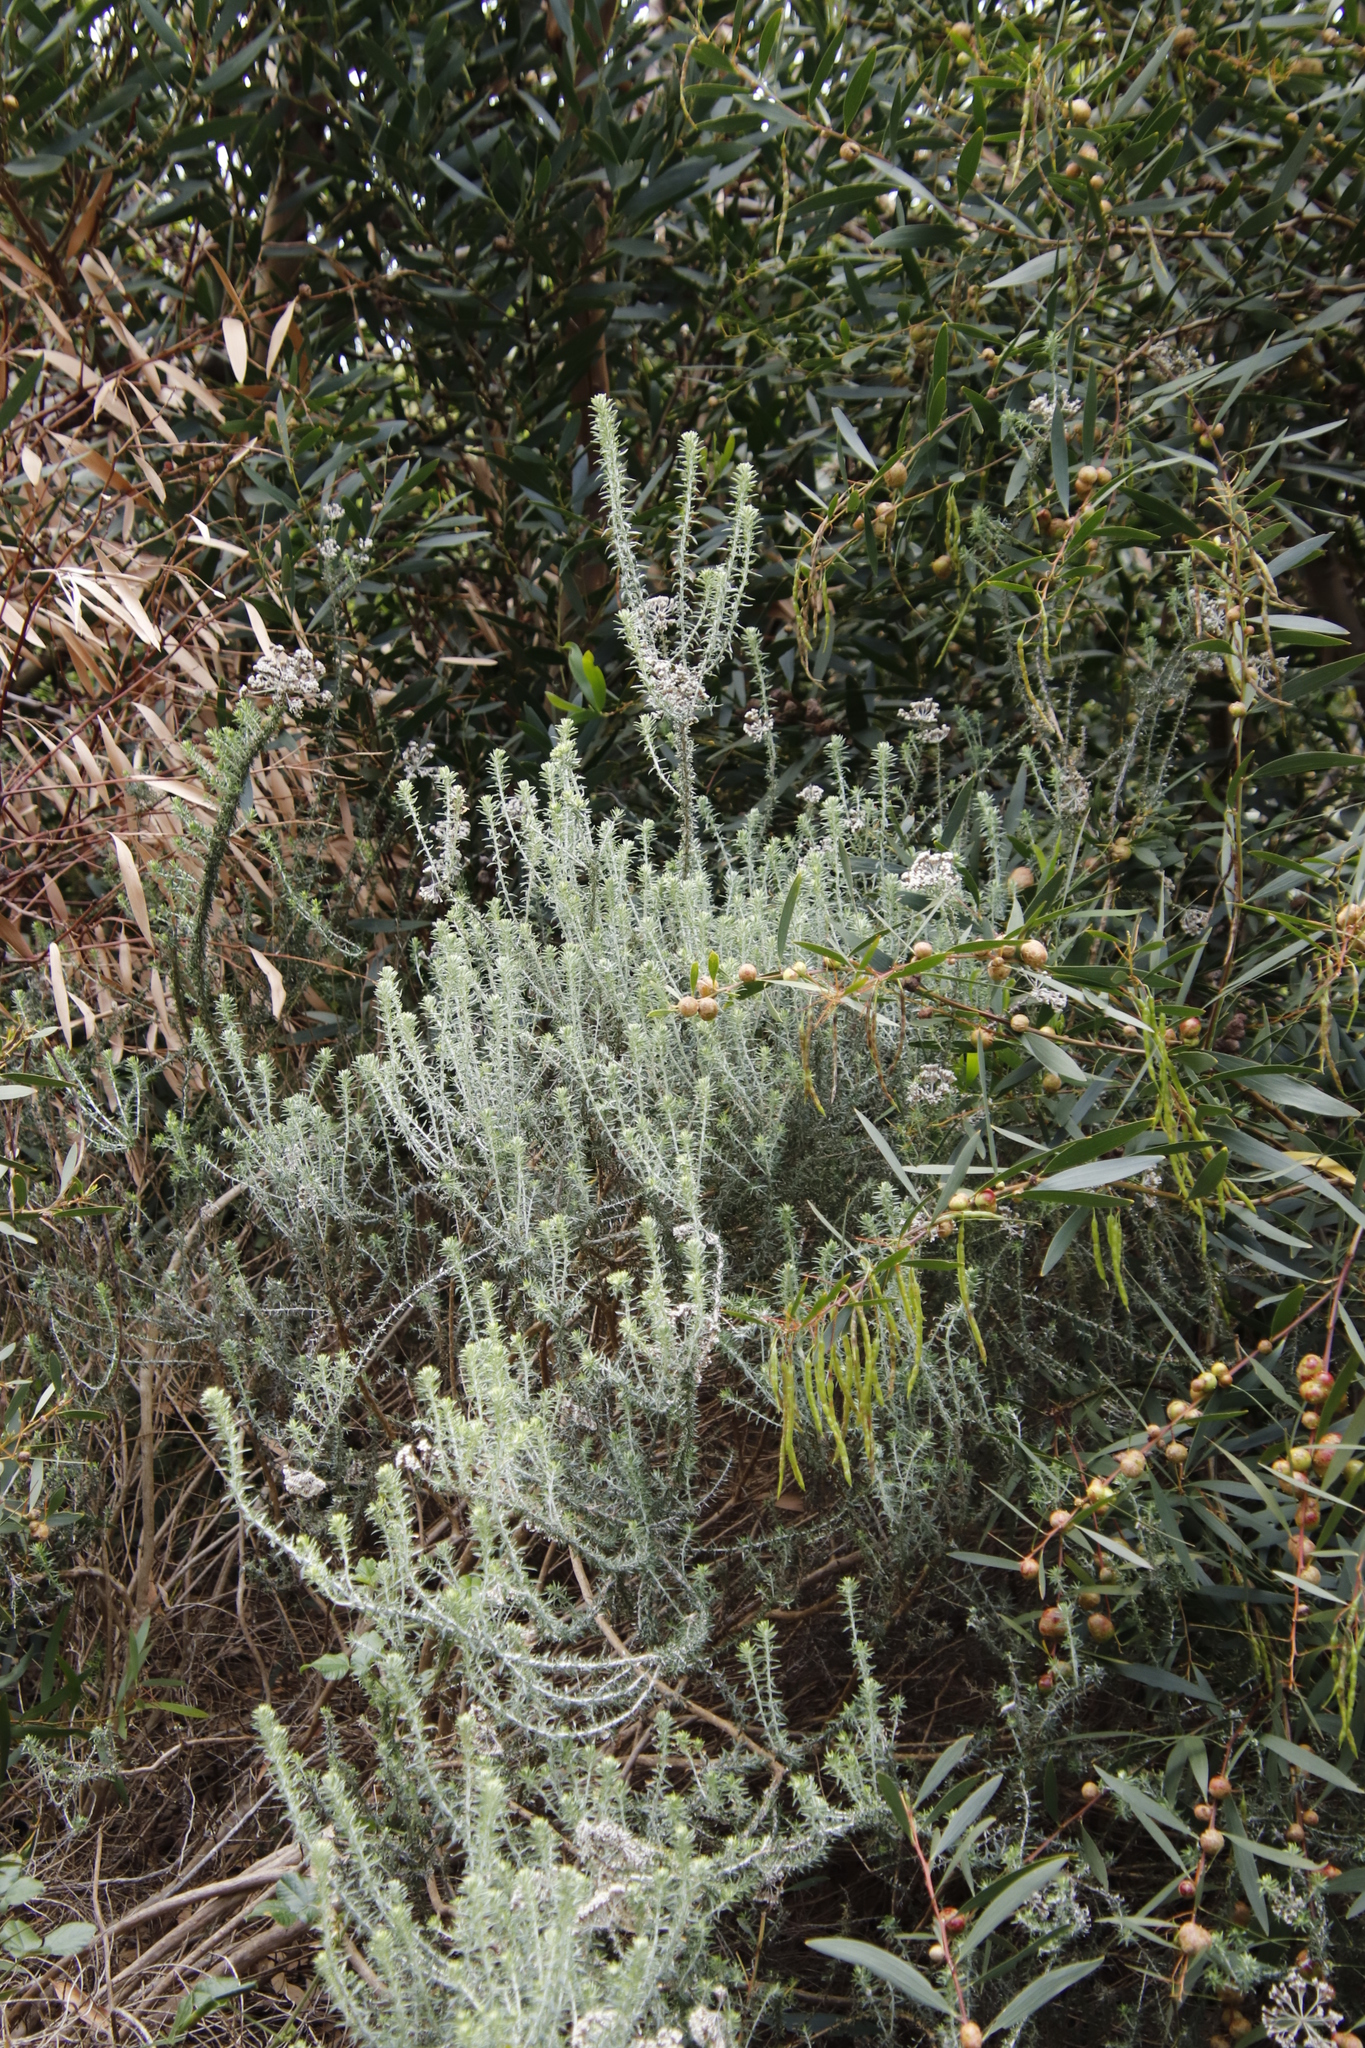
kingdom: Plantae
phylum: Tracheophyta
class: Magnoliopsida
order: Asterales
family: Asteraceae
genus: Metalasia
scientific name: Metalasia densa
